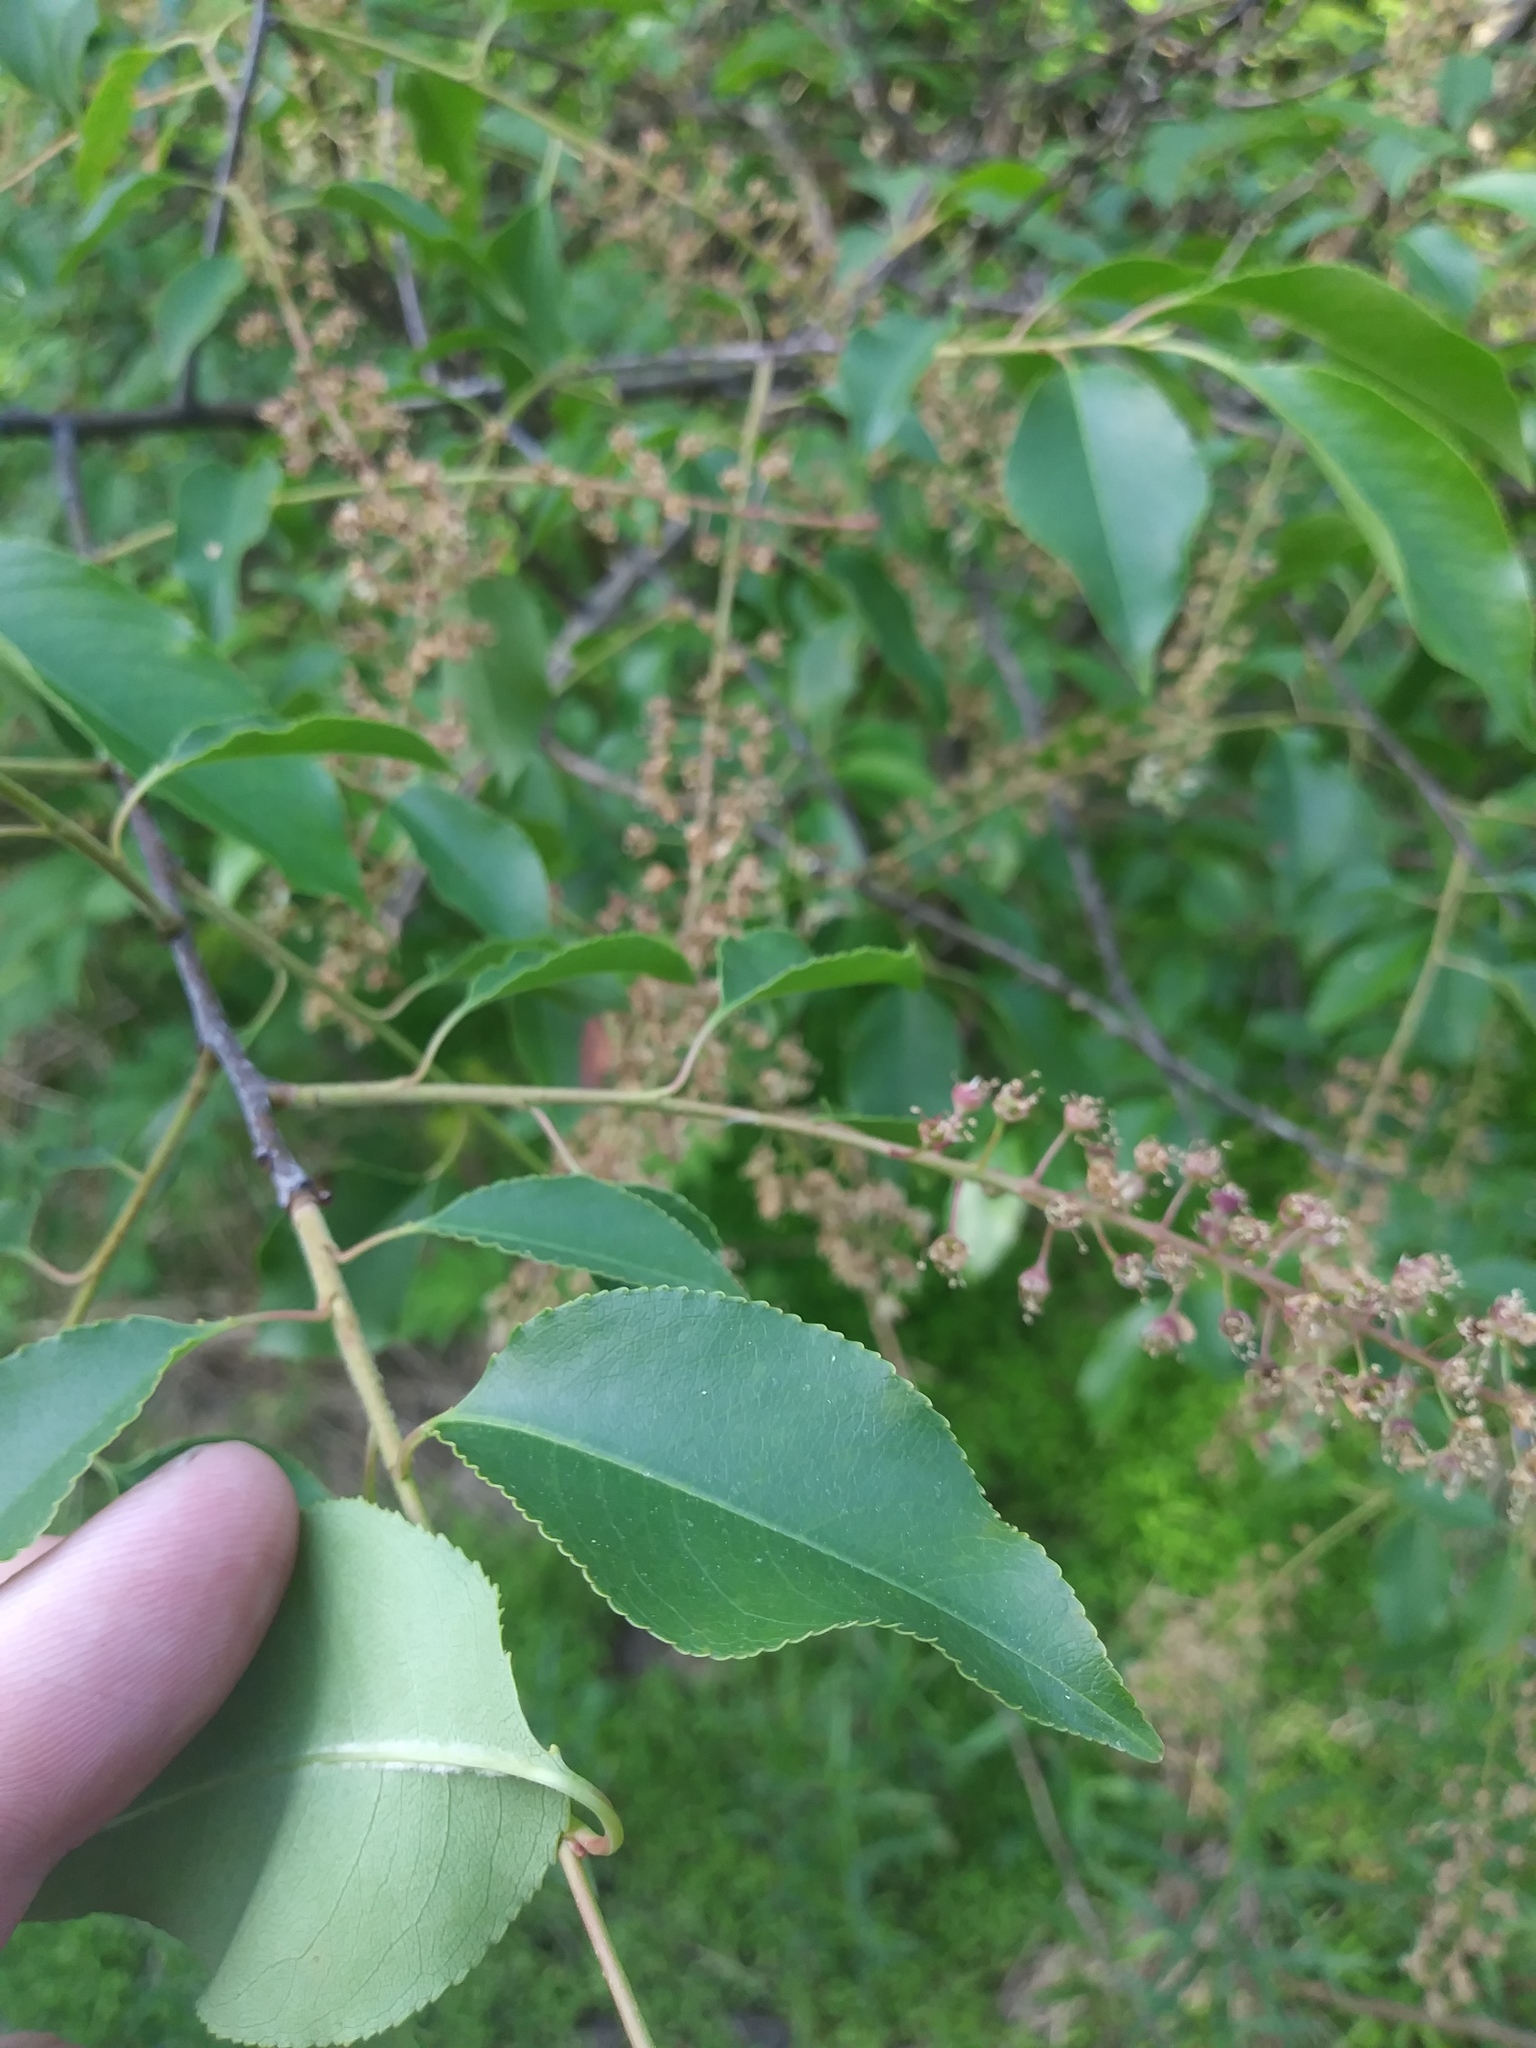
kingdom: Plantae
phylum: Tracheophyta
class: Magnoliopsida
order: Rosales
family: Rosaceae
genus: Prunus
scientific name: Prunus serotina
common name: Black cherry
